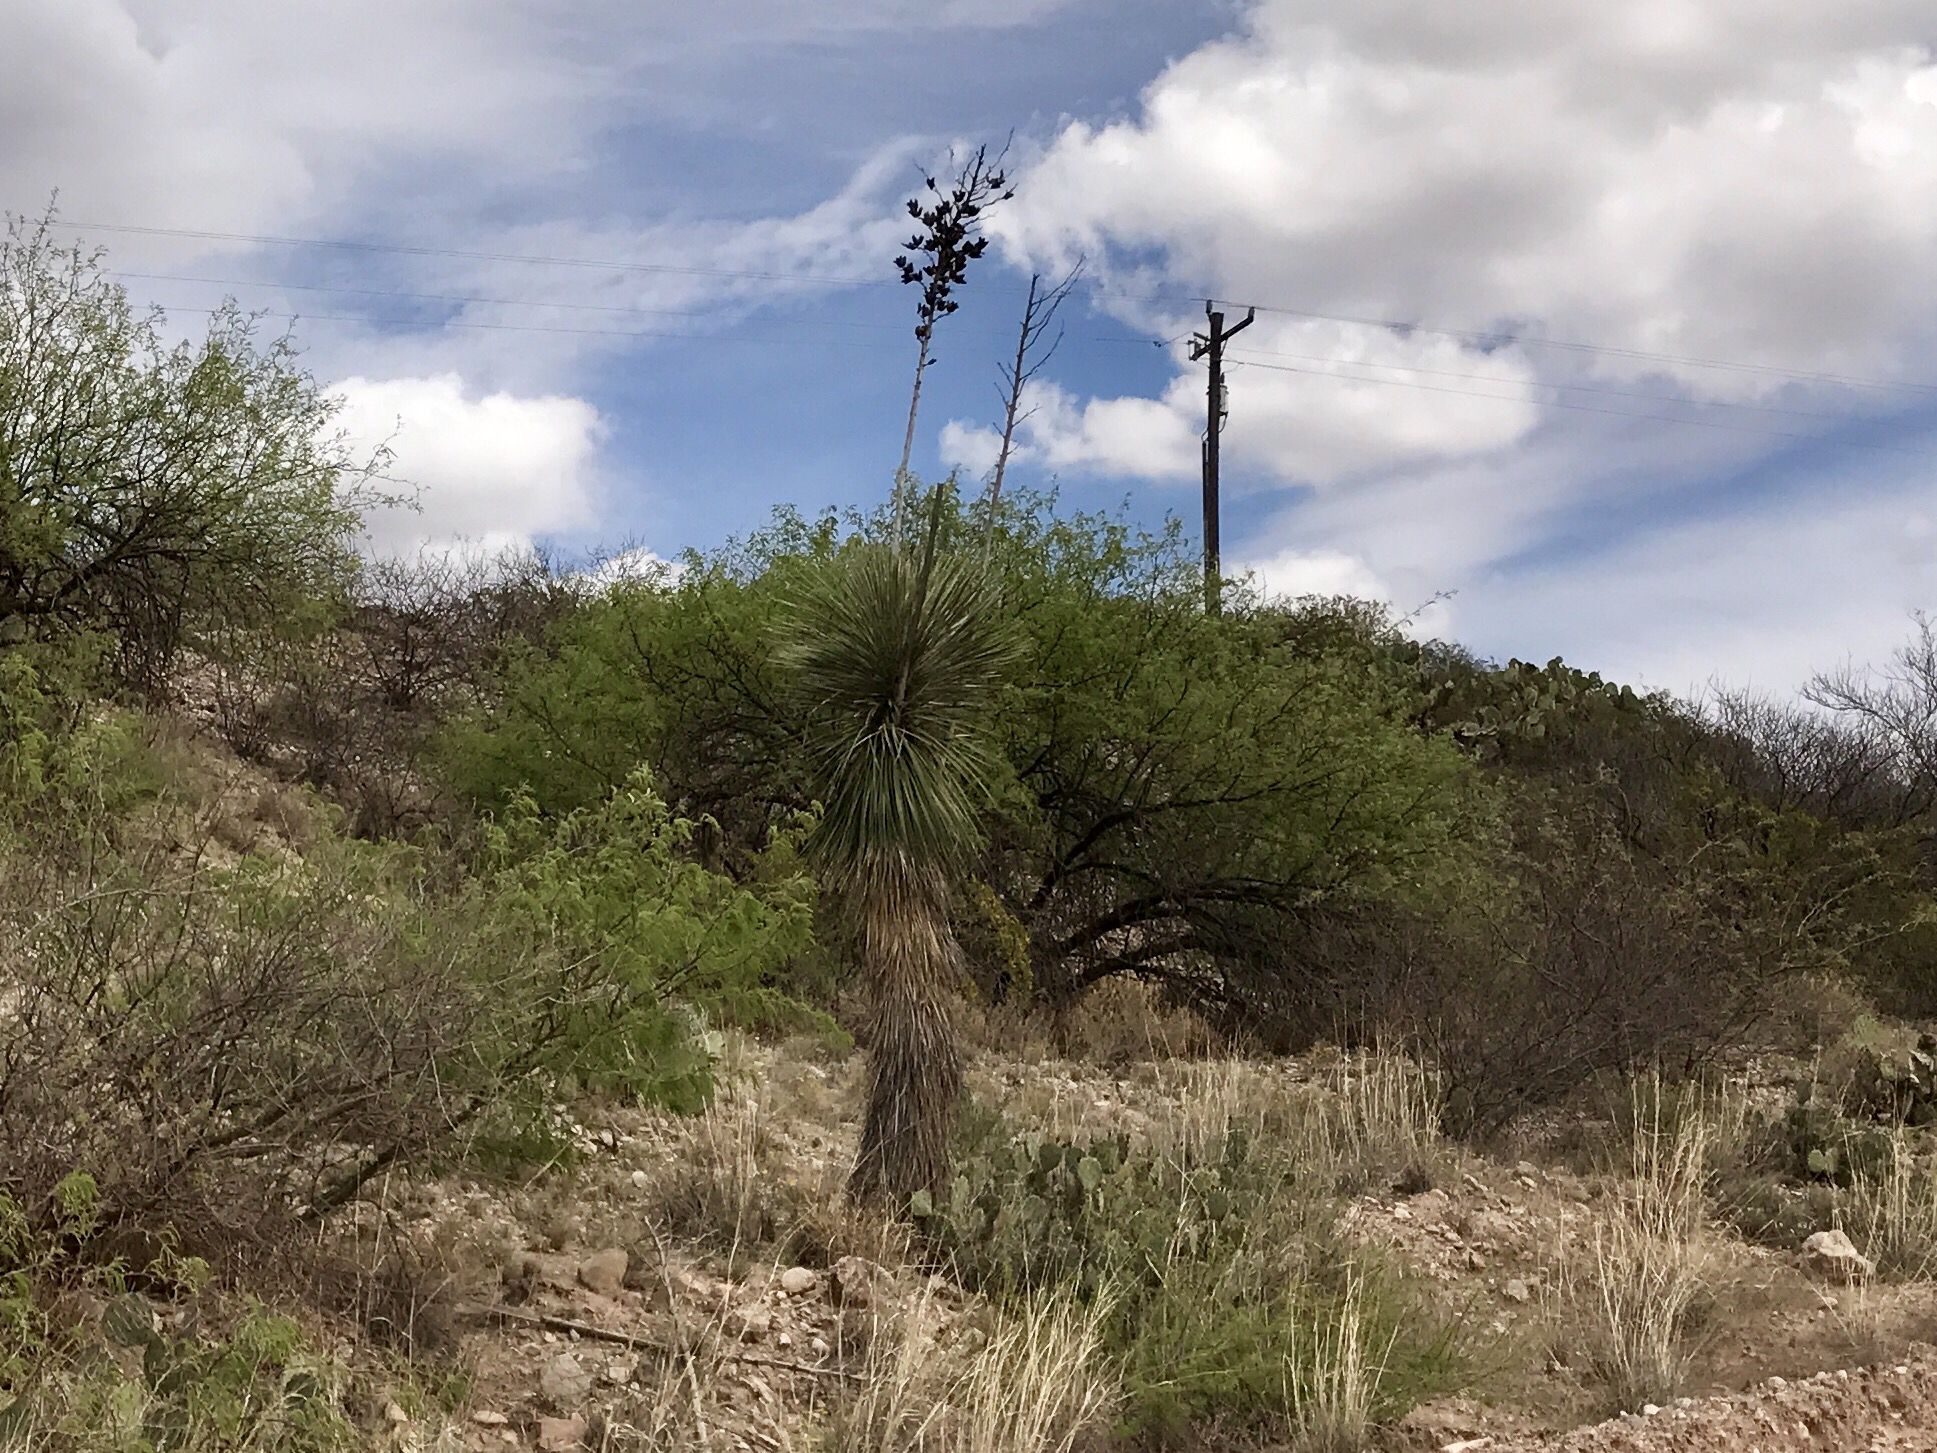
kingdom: Plantae
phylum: Tracheophyta
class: Liliopsida
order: Asparagales
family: Asparagaceae
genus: Yucca
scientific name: Yucca elata
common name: Palmella
